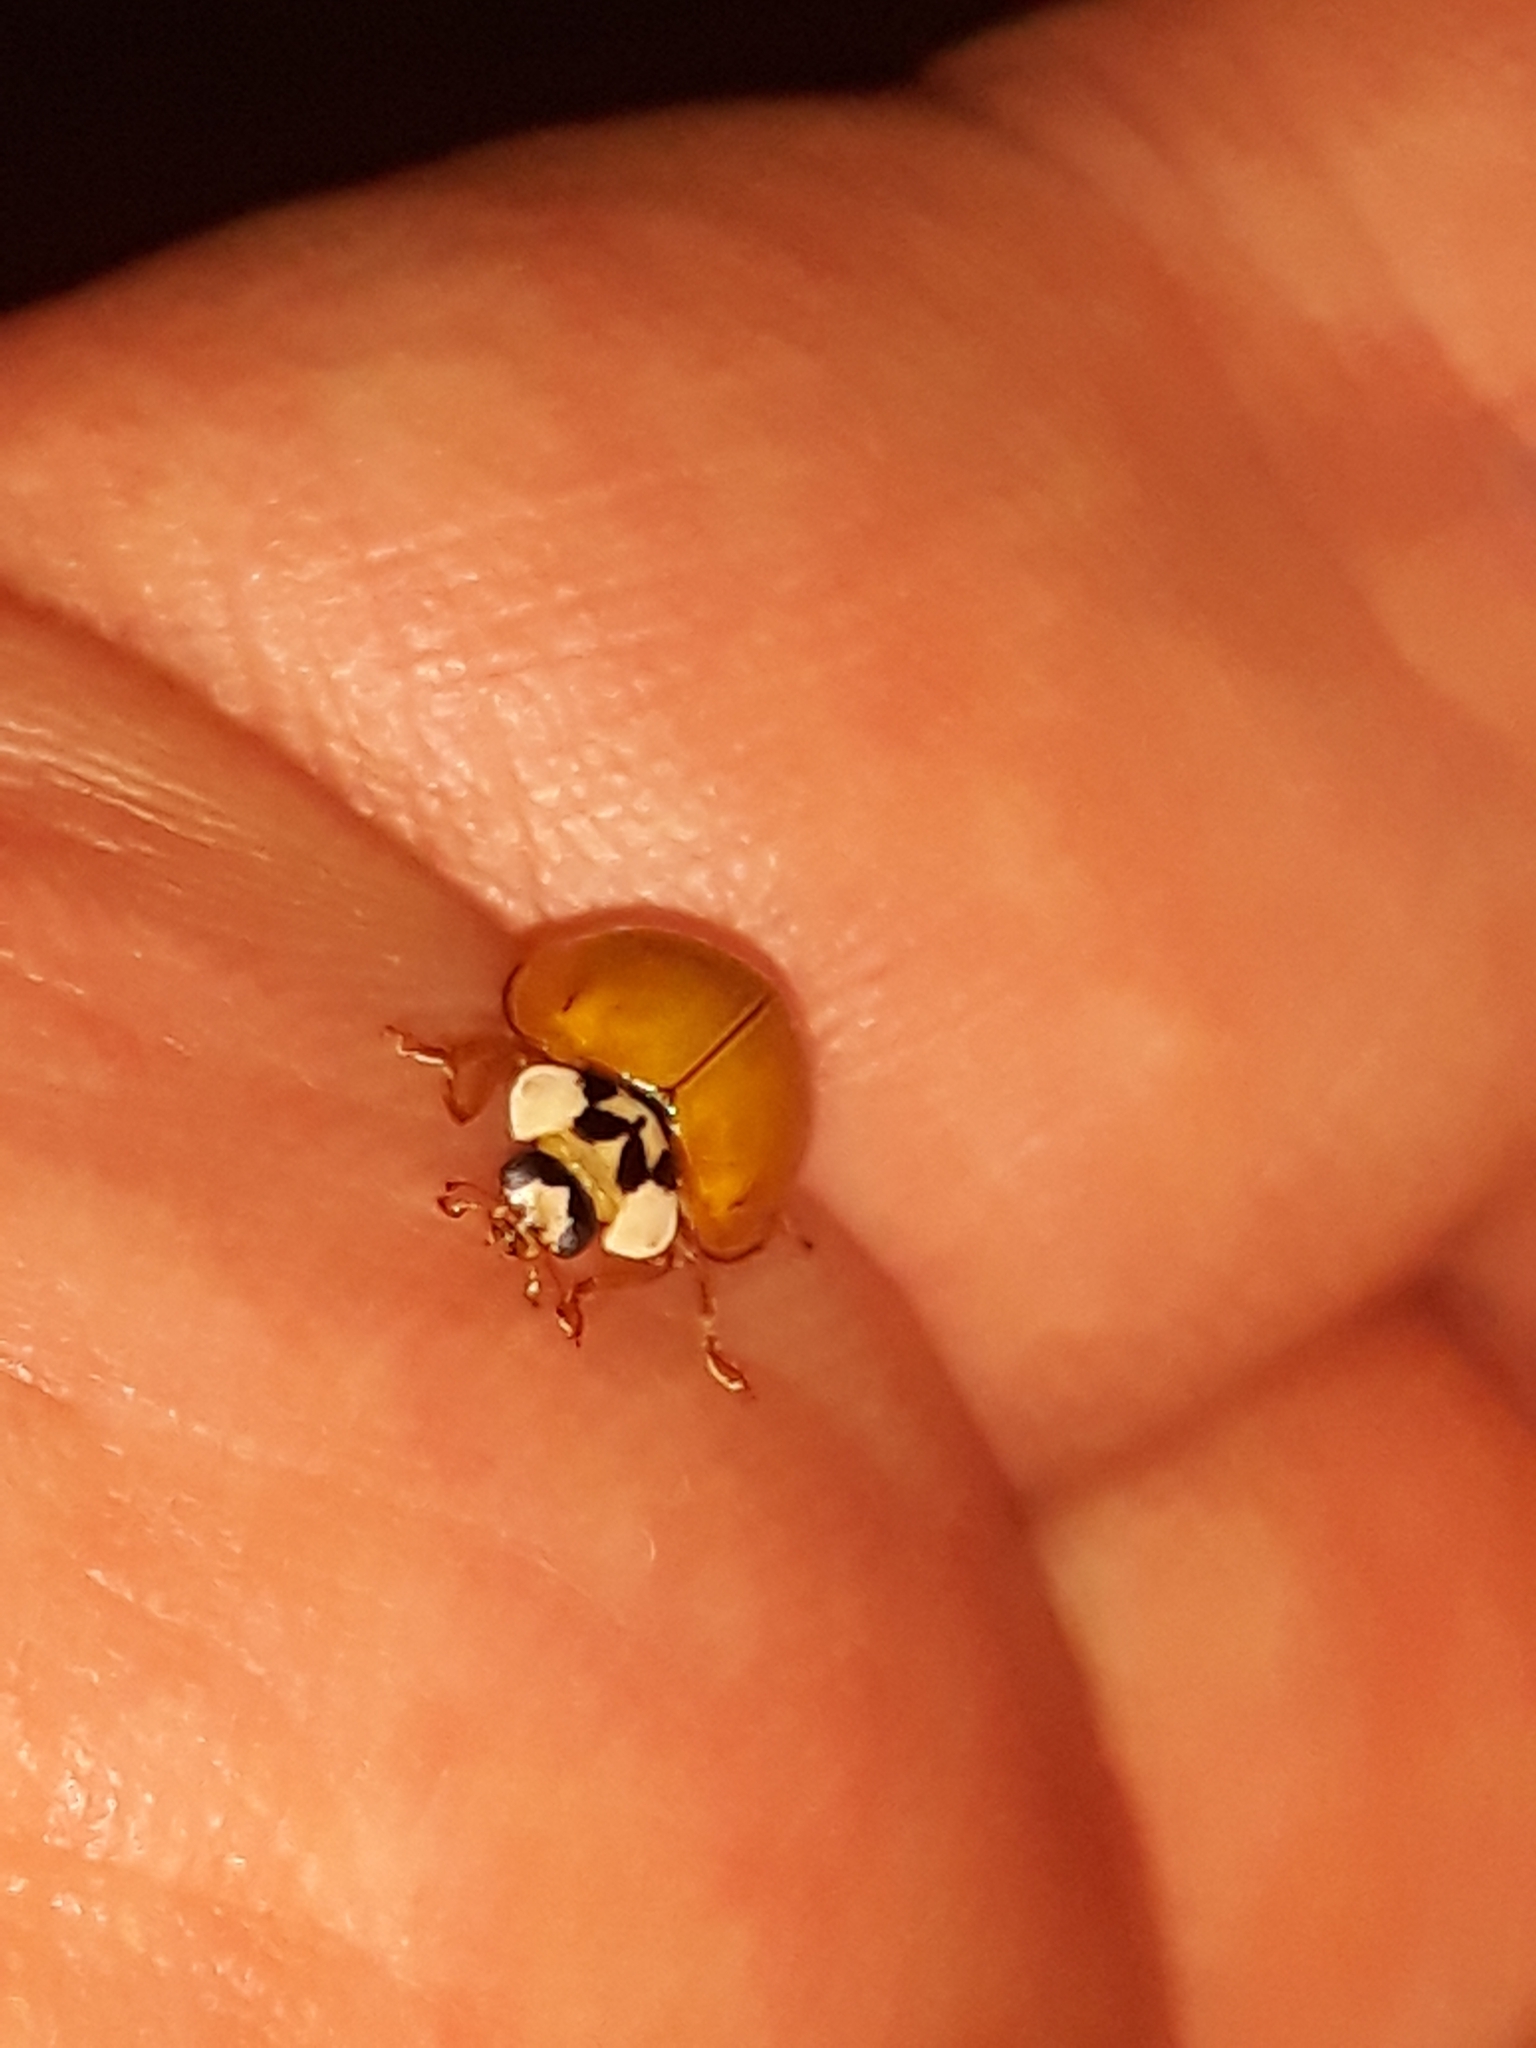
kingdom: Animalia
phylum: Arthropoda
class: Insecta
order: Coleoptera
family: Coccinellidae
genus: Harmonia
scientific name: Harmonia axyridis
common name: Harlequin ladybird
